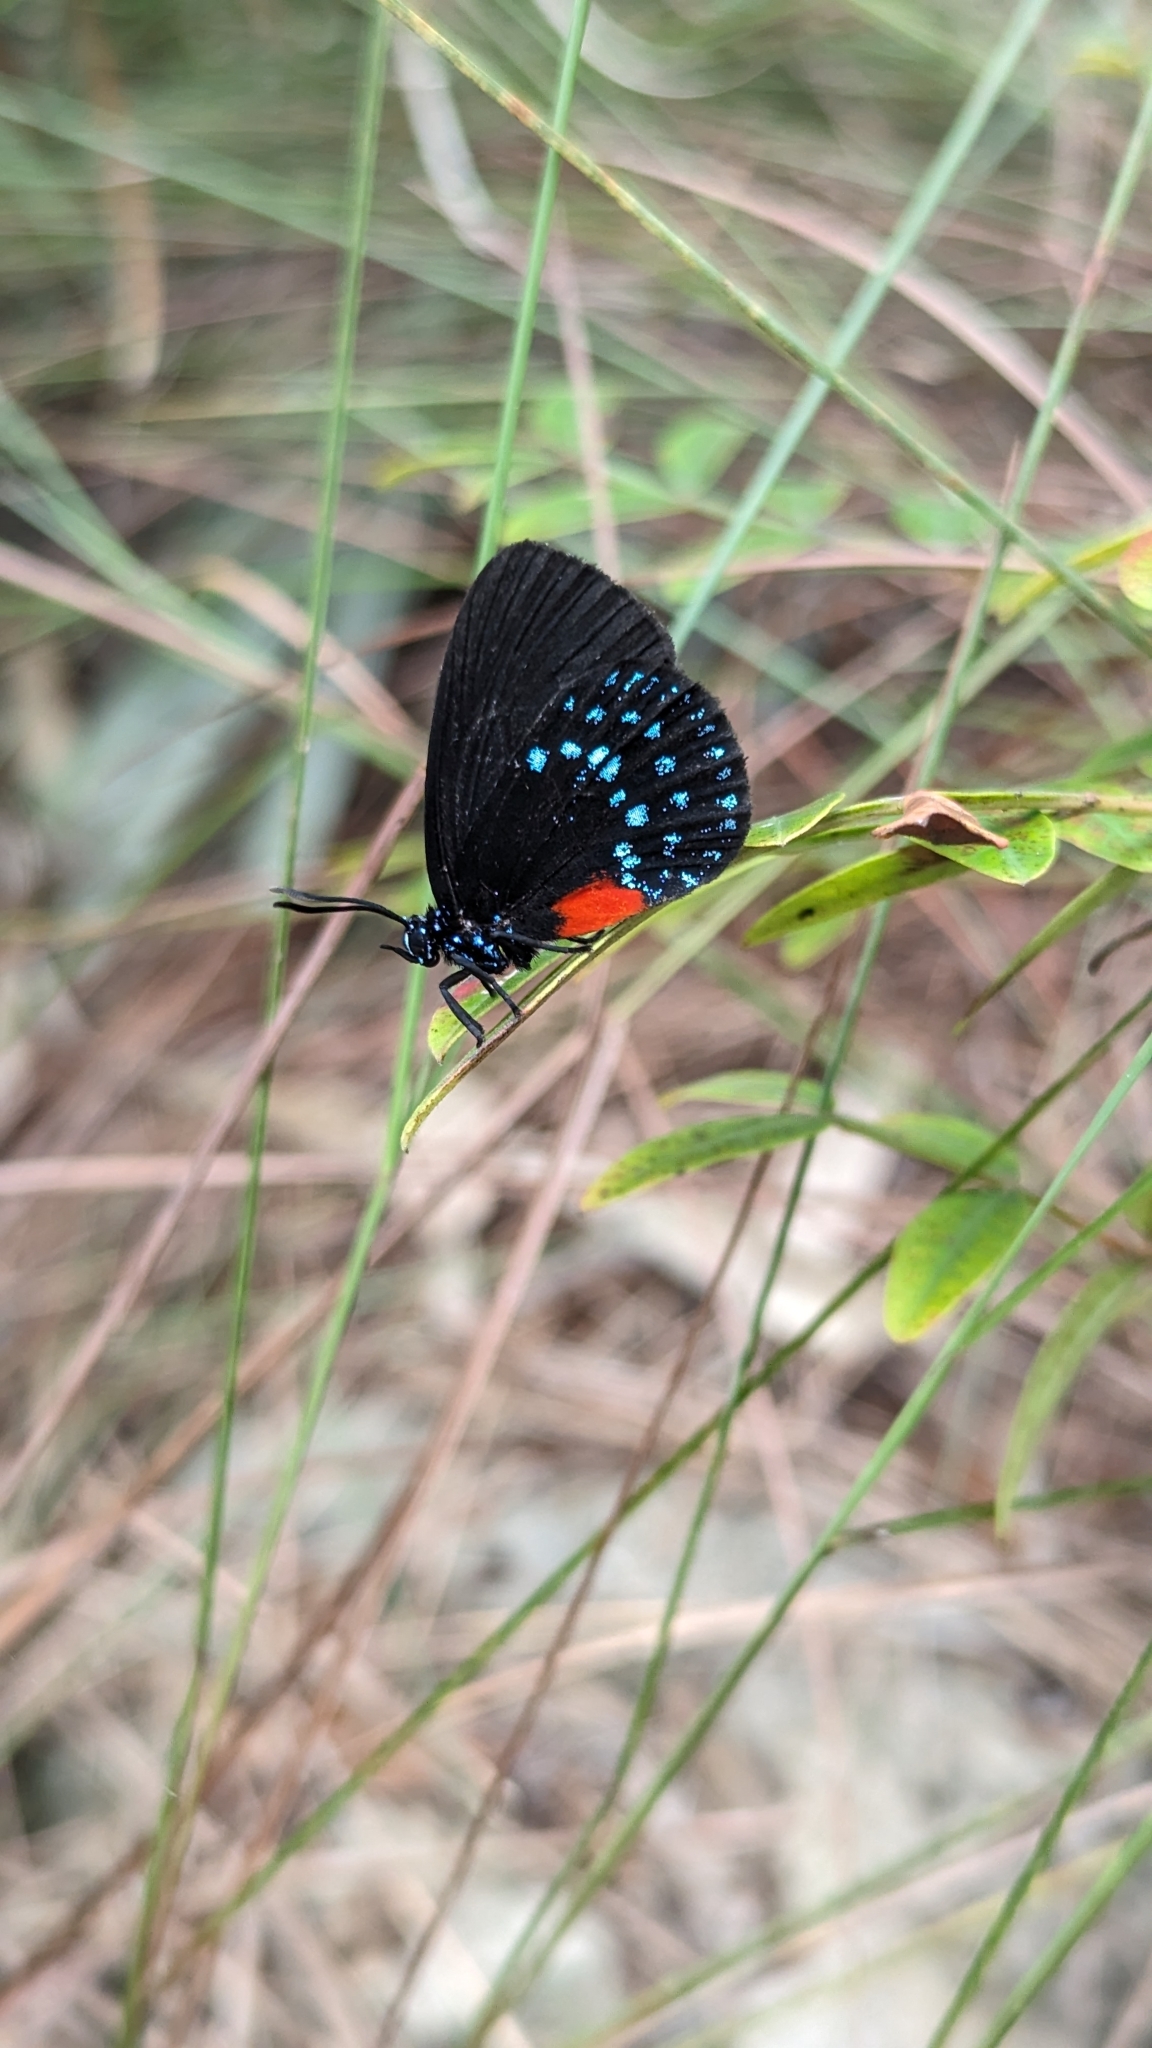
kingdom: Animalia
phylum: Arthropoda
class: Insecta
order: Lepidoptera
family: Lycaenidae
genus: Eumaeus
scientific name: Eumaeus atala
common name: Atala
